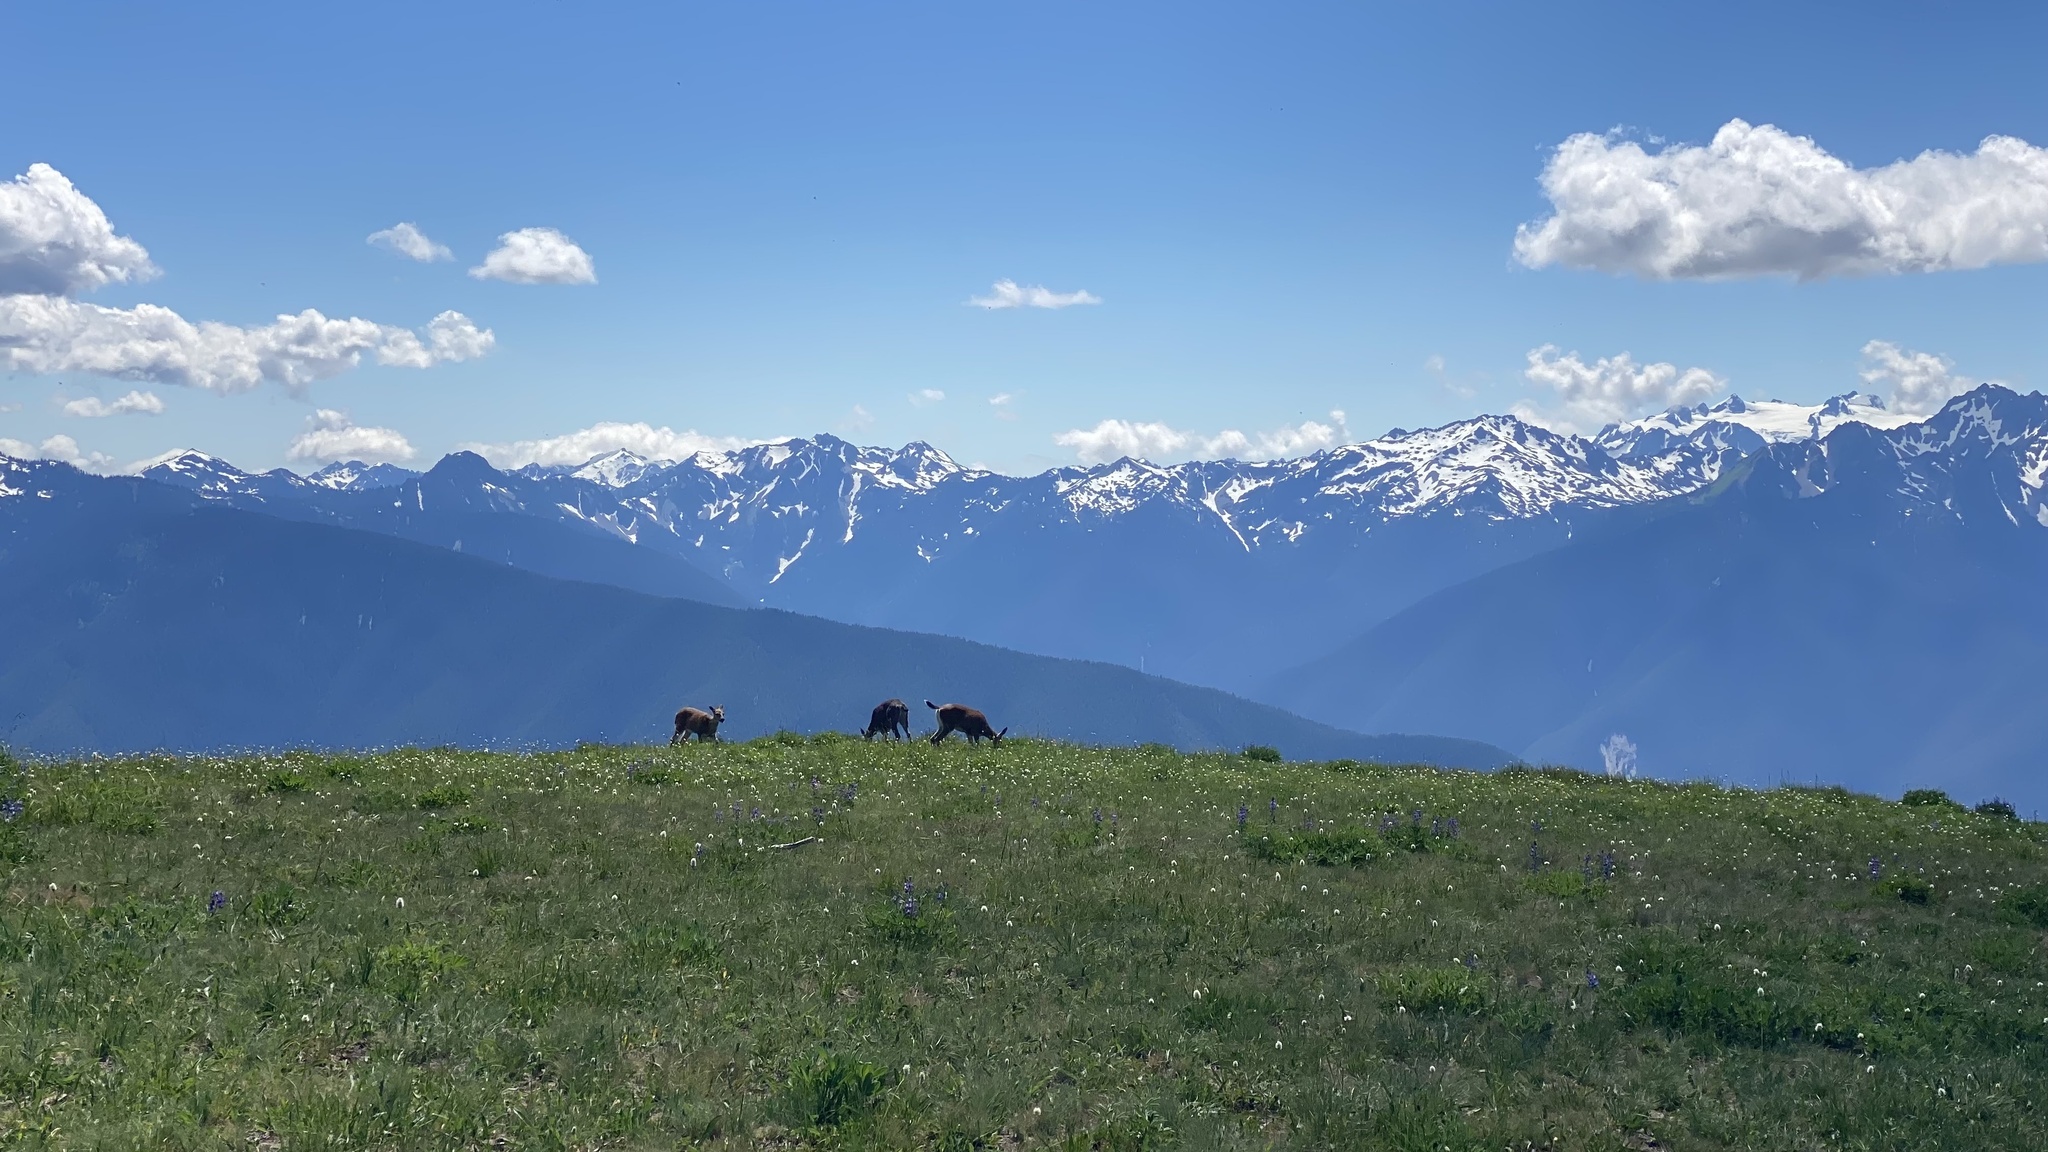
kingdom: Animalia
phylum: Chordata
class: Mammalia
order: Artiodactyla
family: Cervidae
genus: Odocoileus
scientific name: Odocoileus hemionus
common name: Mule deer
